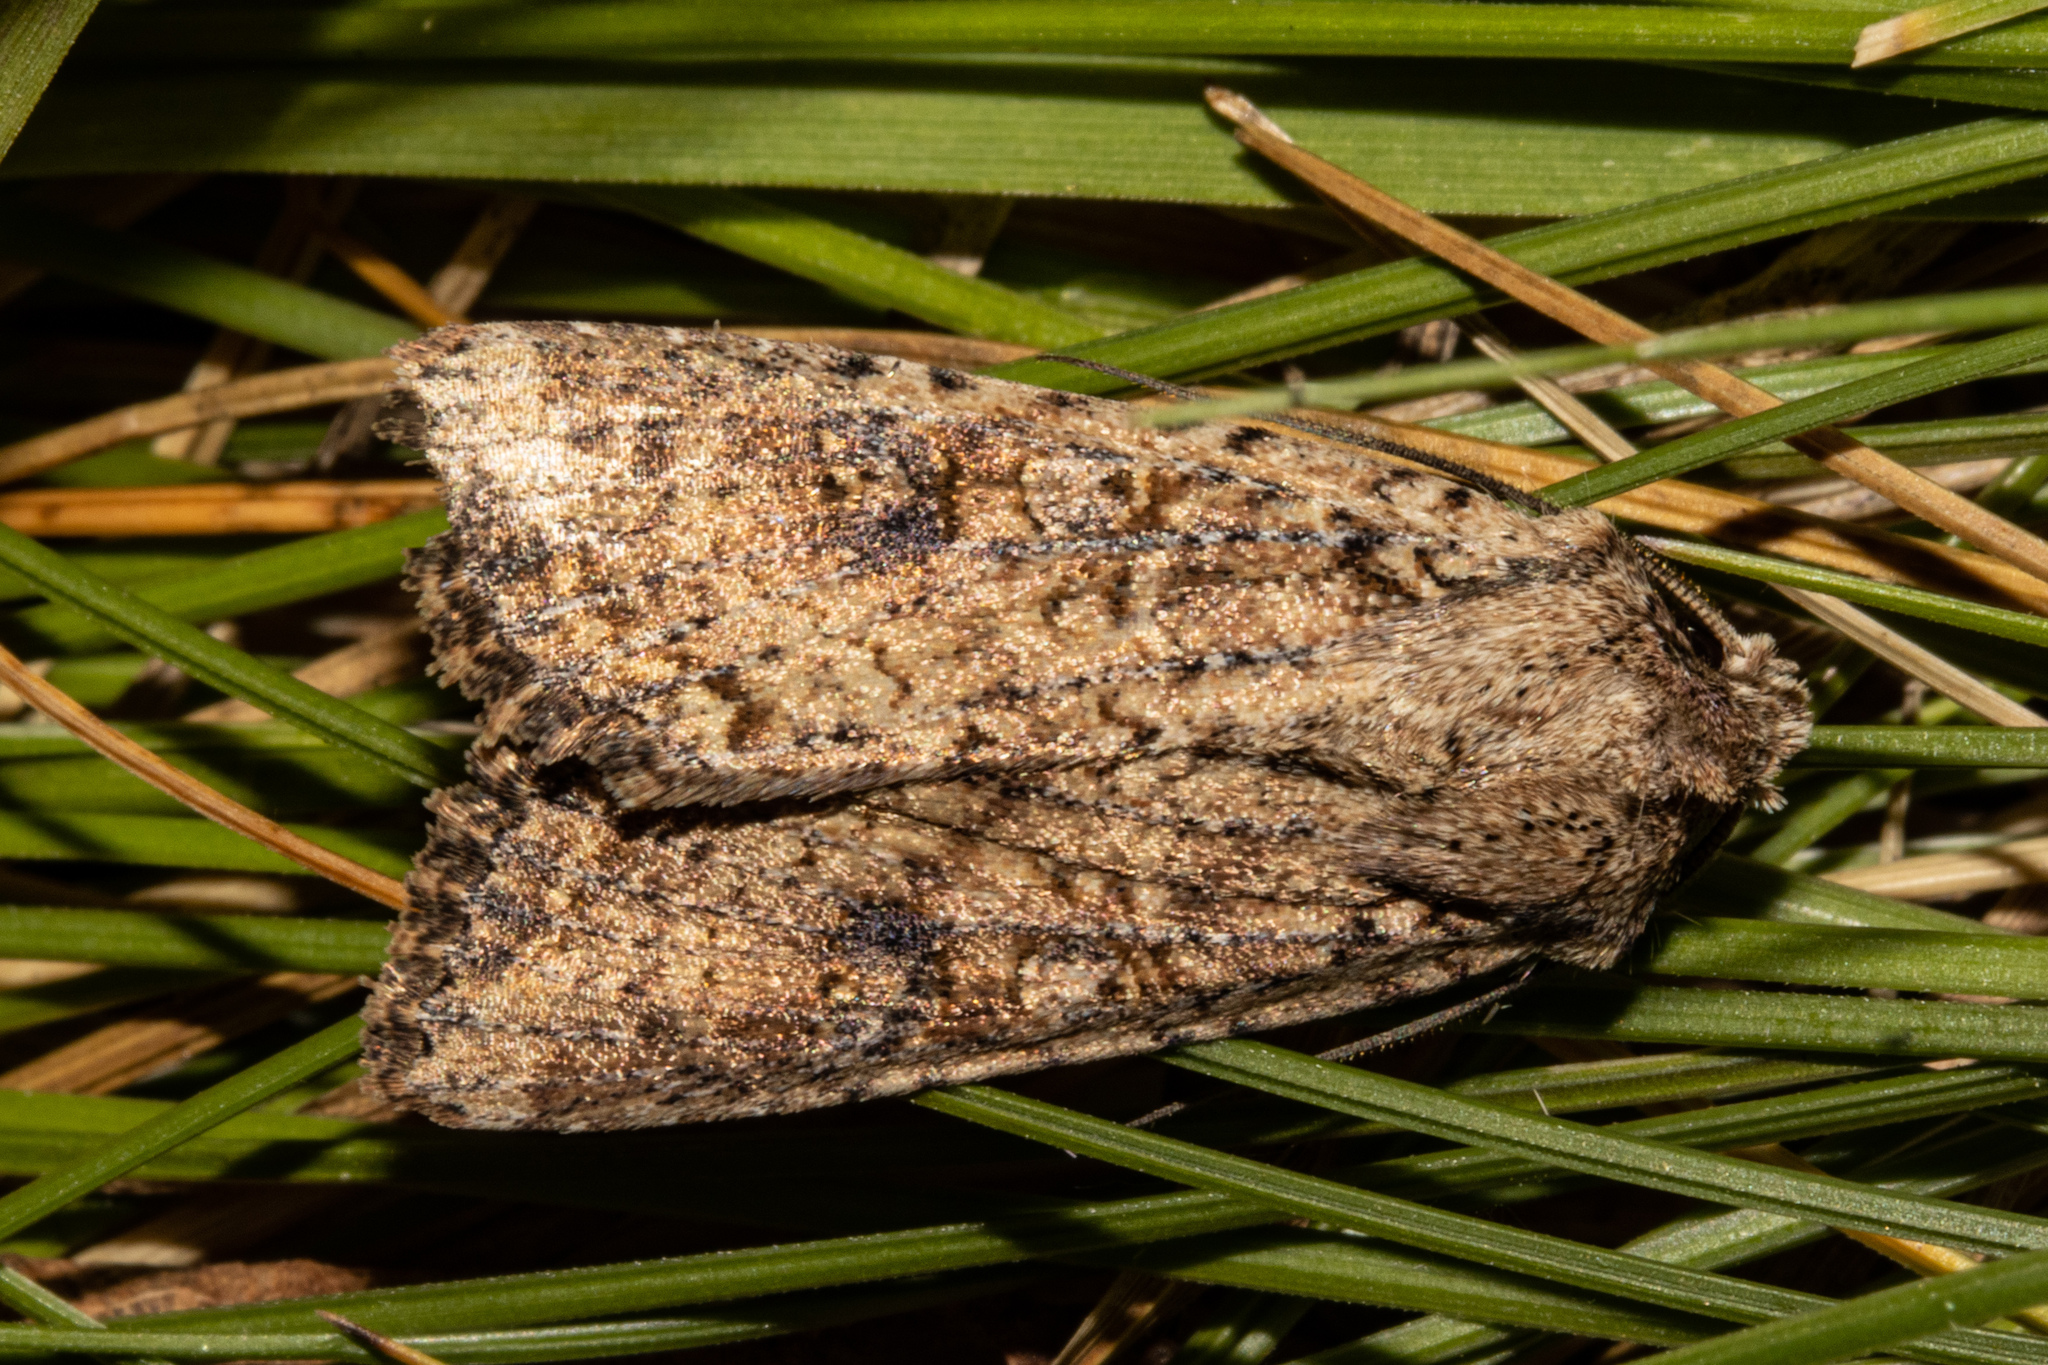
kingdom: Animalia
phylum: Arthropoda
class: Insecta
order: Lepidoptera
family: Noctuidae
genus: Ichneutica
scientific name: Ichneutica morosa
